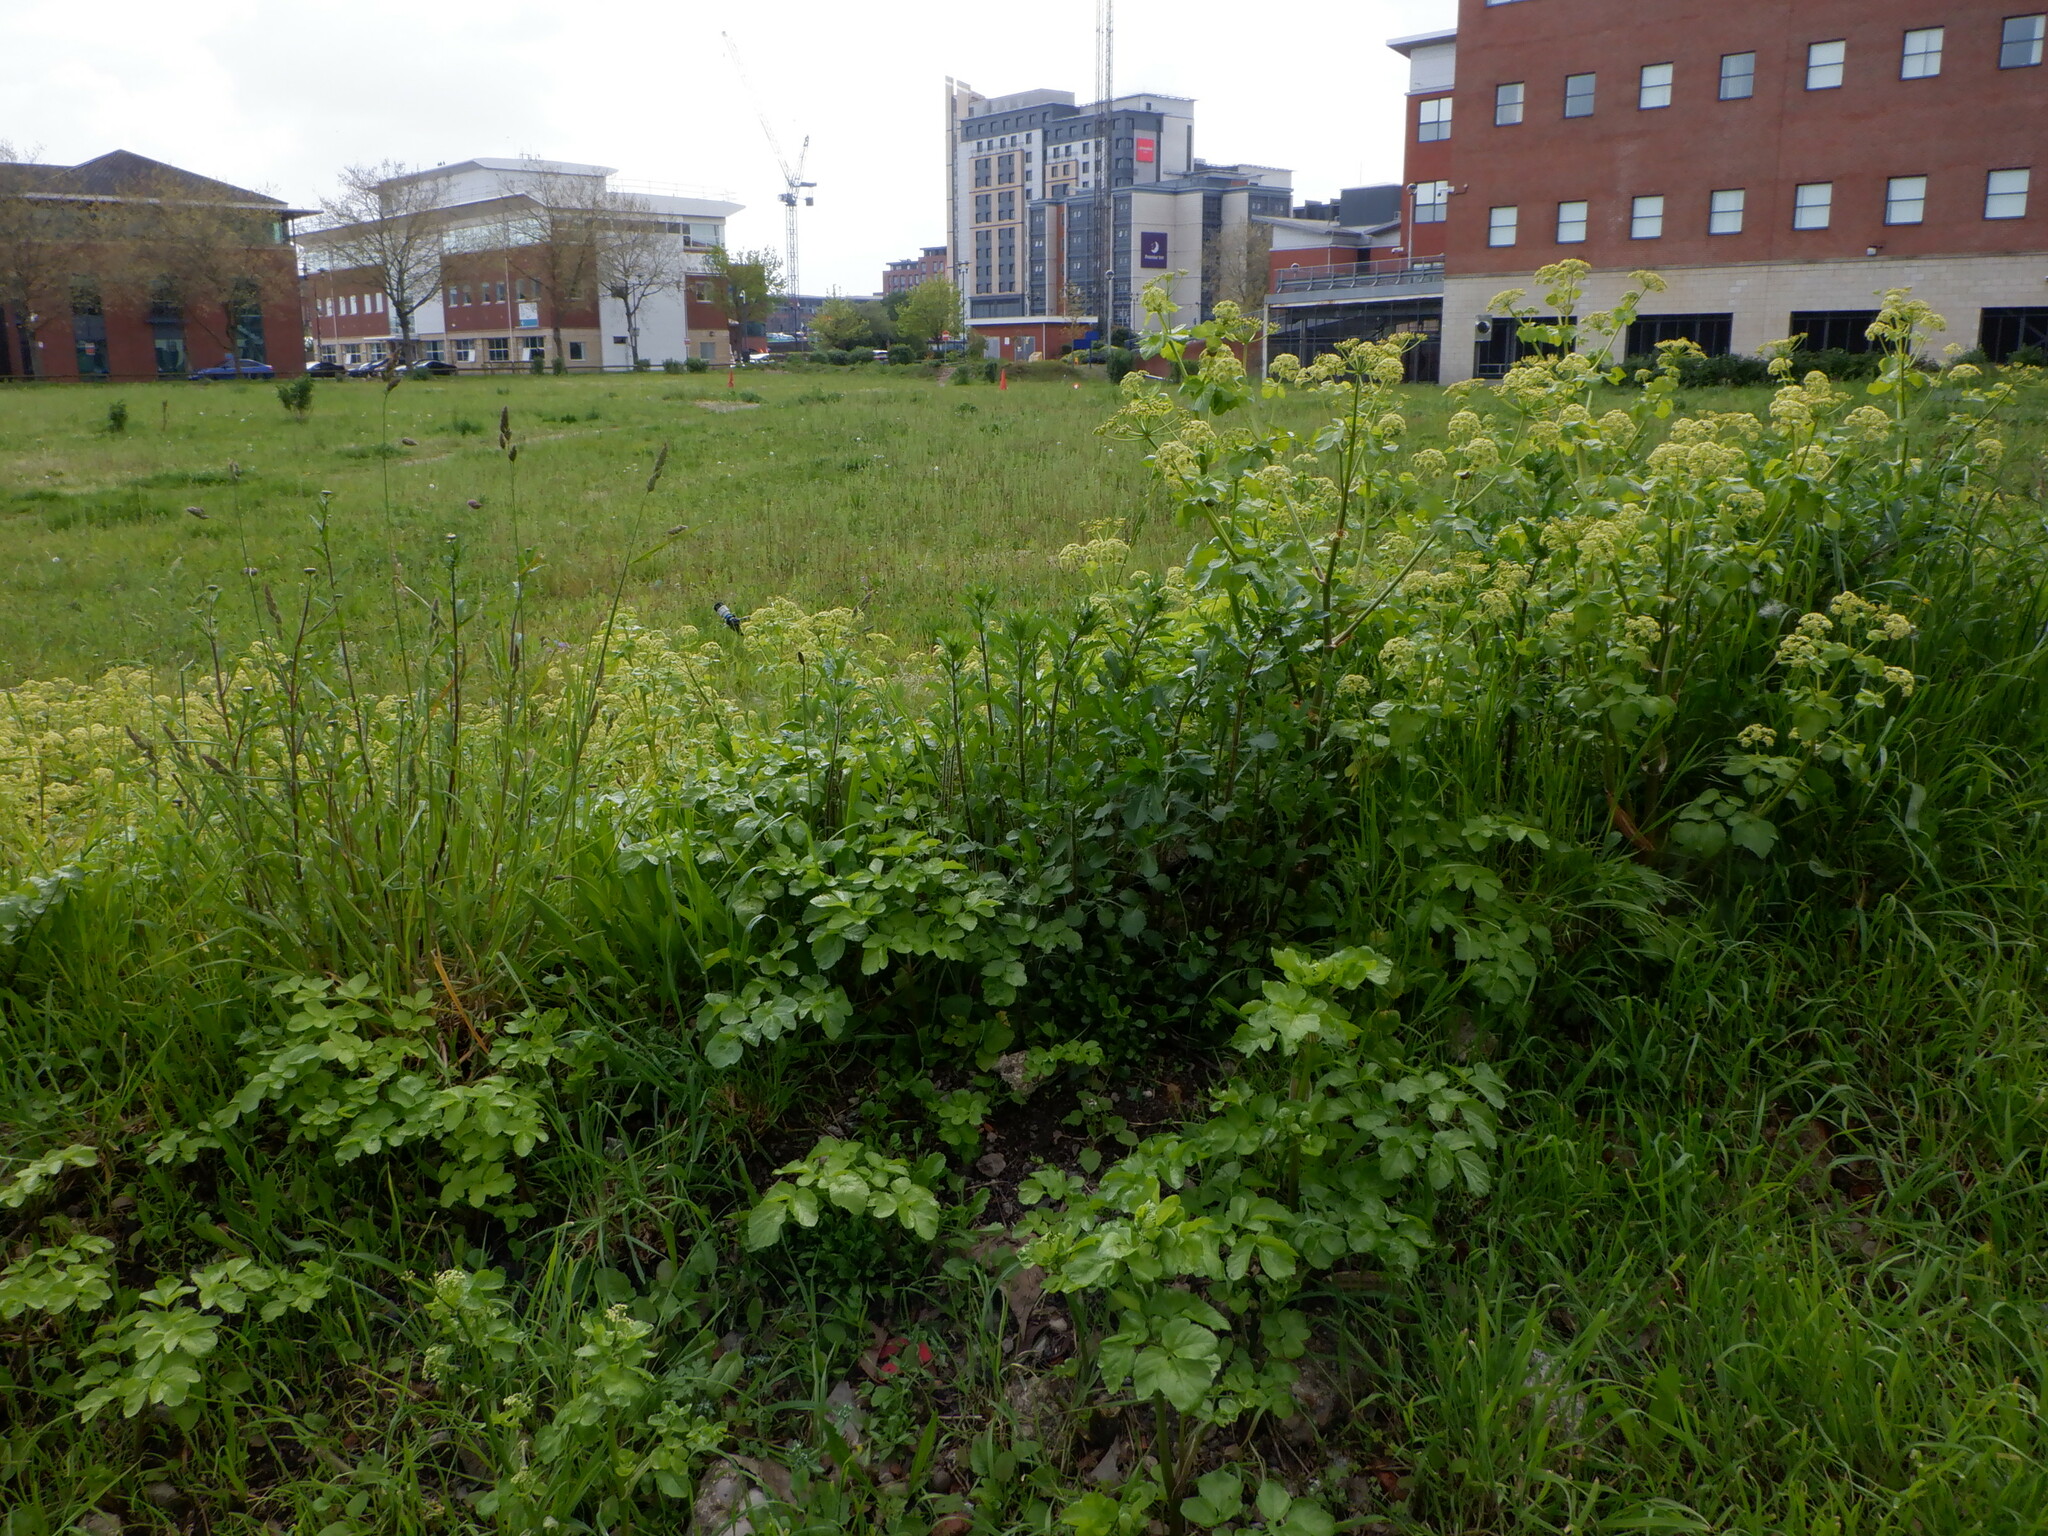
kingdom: Plantae
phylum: Tracheophyta
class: Magnoliopsida
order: Apiales
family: Apiaceae
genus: Smyrnium
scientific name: Smyrnium olusatrum
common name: Alexanders
